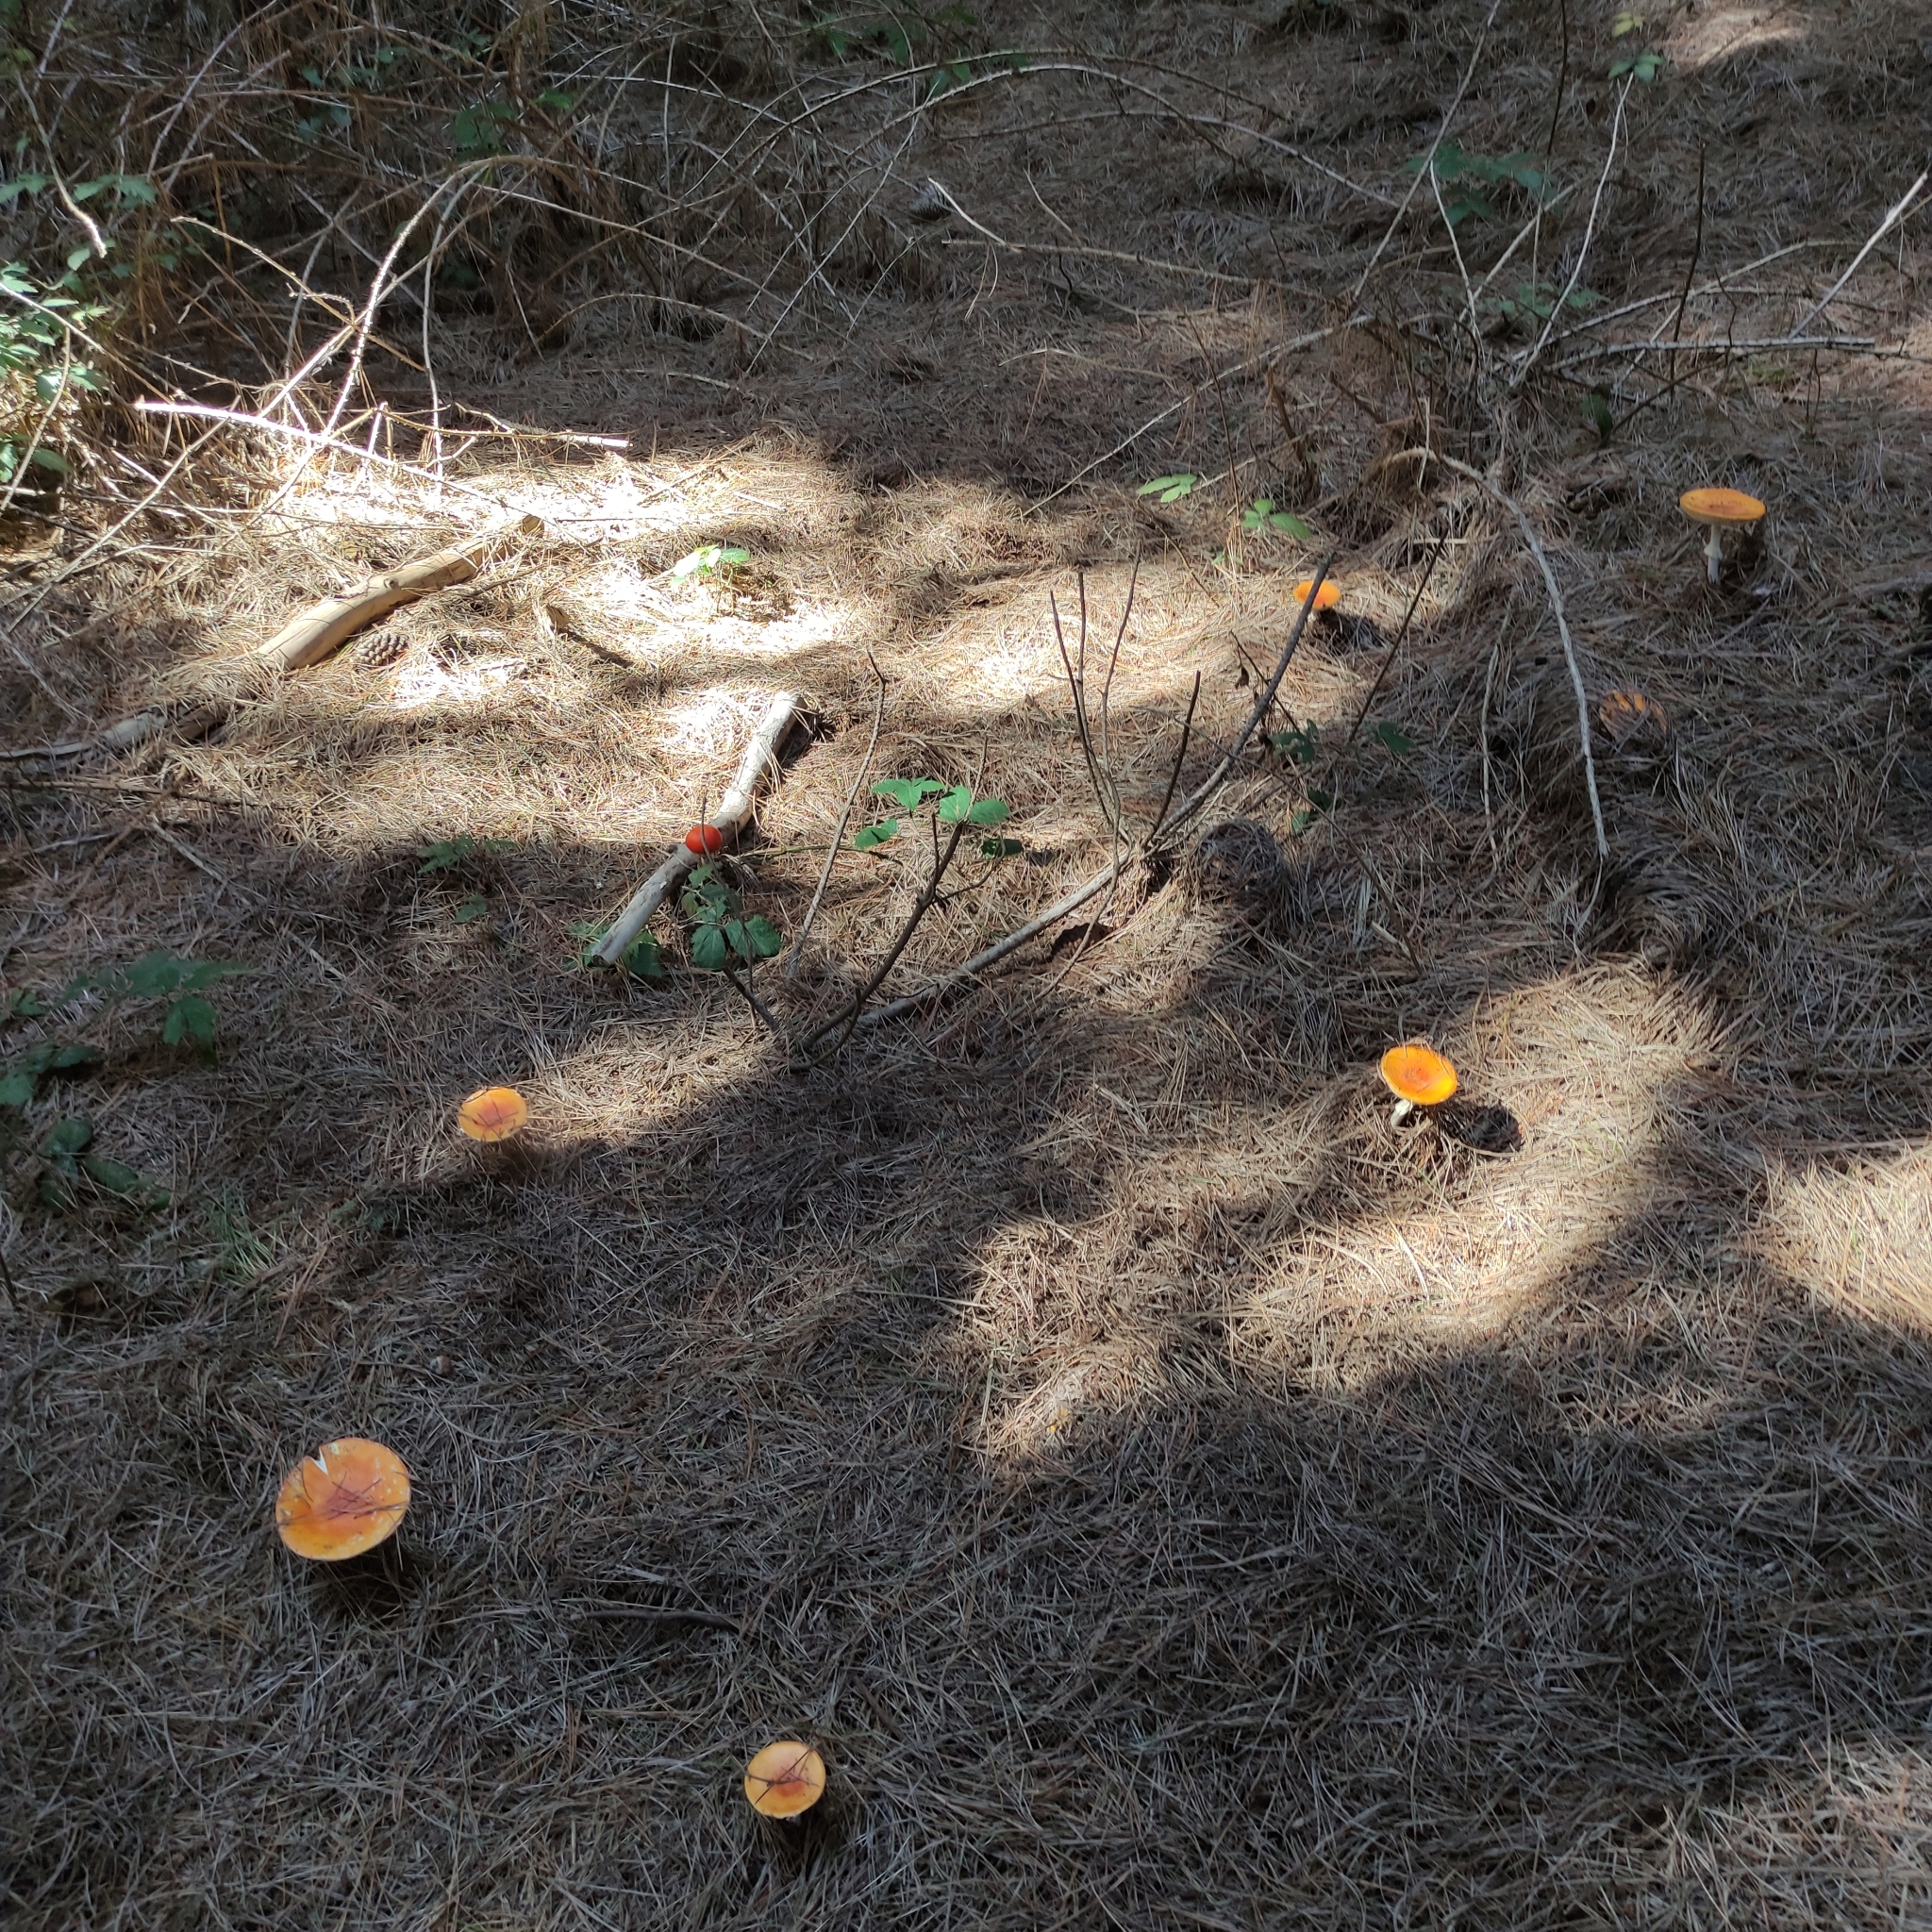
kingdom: Fungi
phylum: Basidiomycota
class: Agaricomycetes
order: Agaricales
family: Amanitaceae
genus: Amanita
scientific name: Amanita muscaria
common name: Fly agaric
